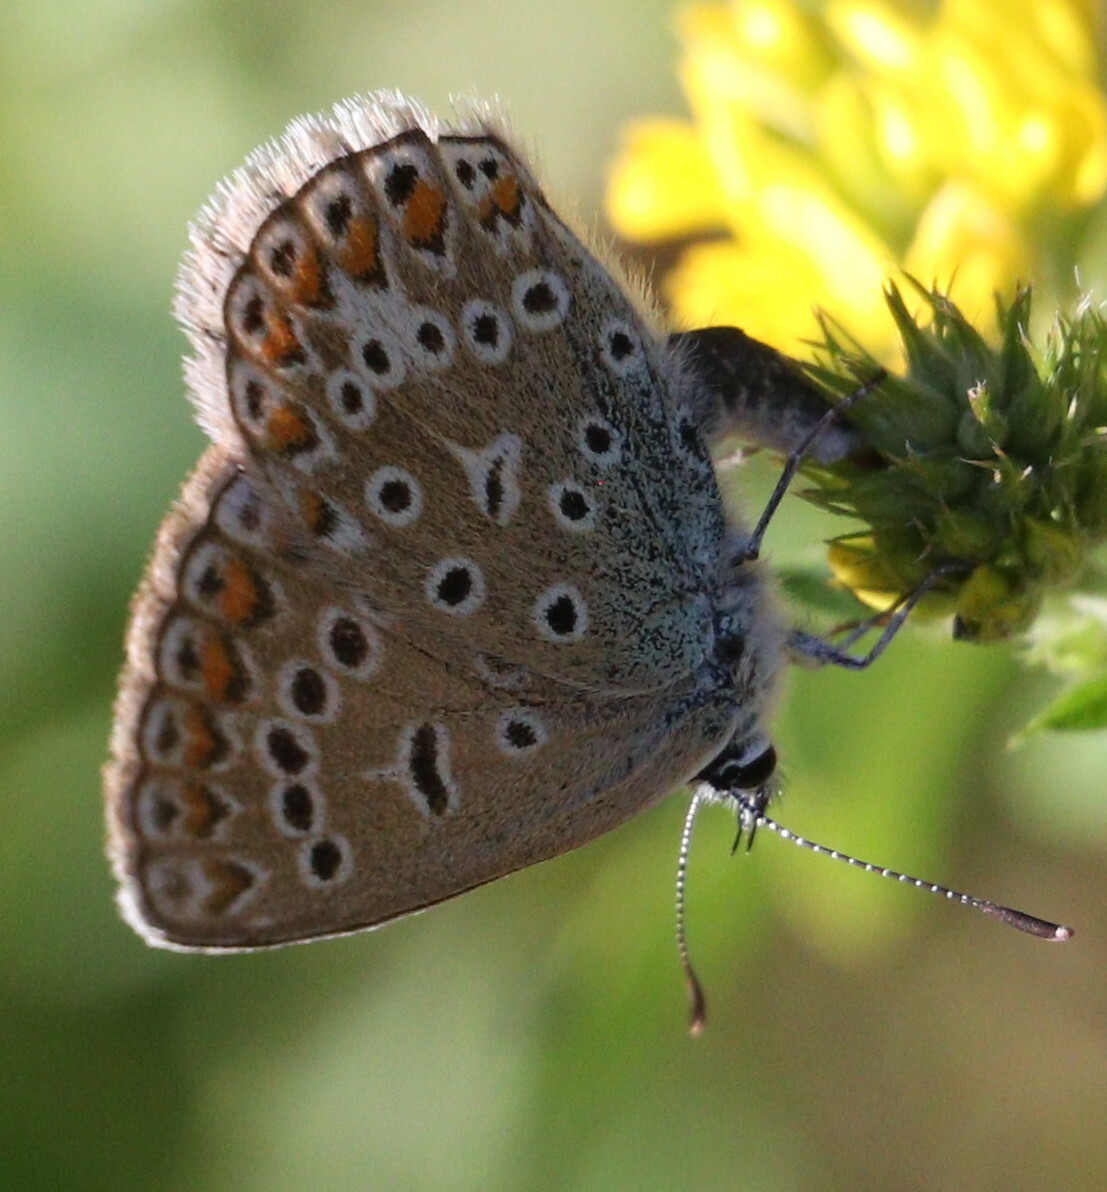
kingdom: Animalia
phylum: Arthropoda
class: Insecta
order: Lepidoptera
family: Lycaenidae
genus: Polyommatus
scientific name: Polyommatus icarus
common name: Common blue
